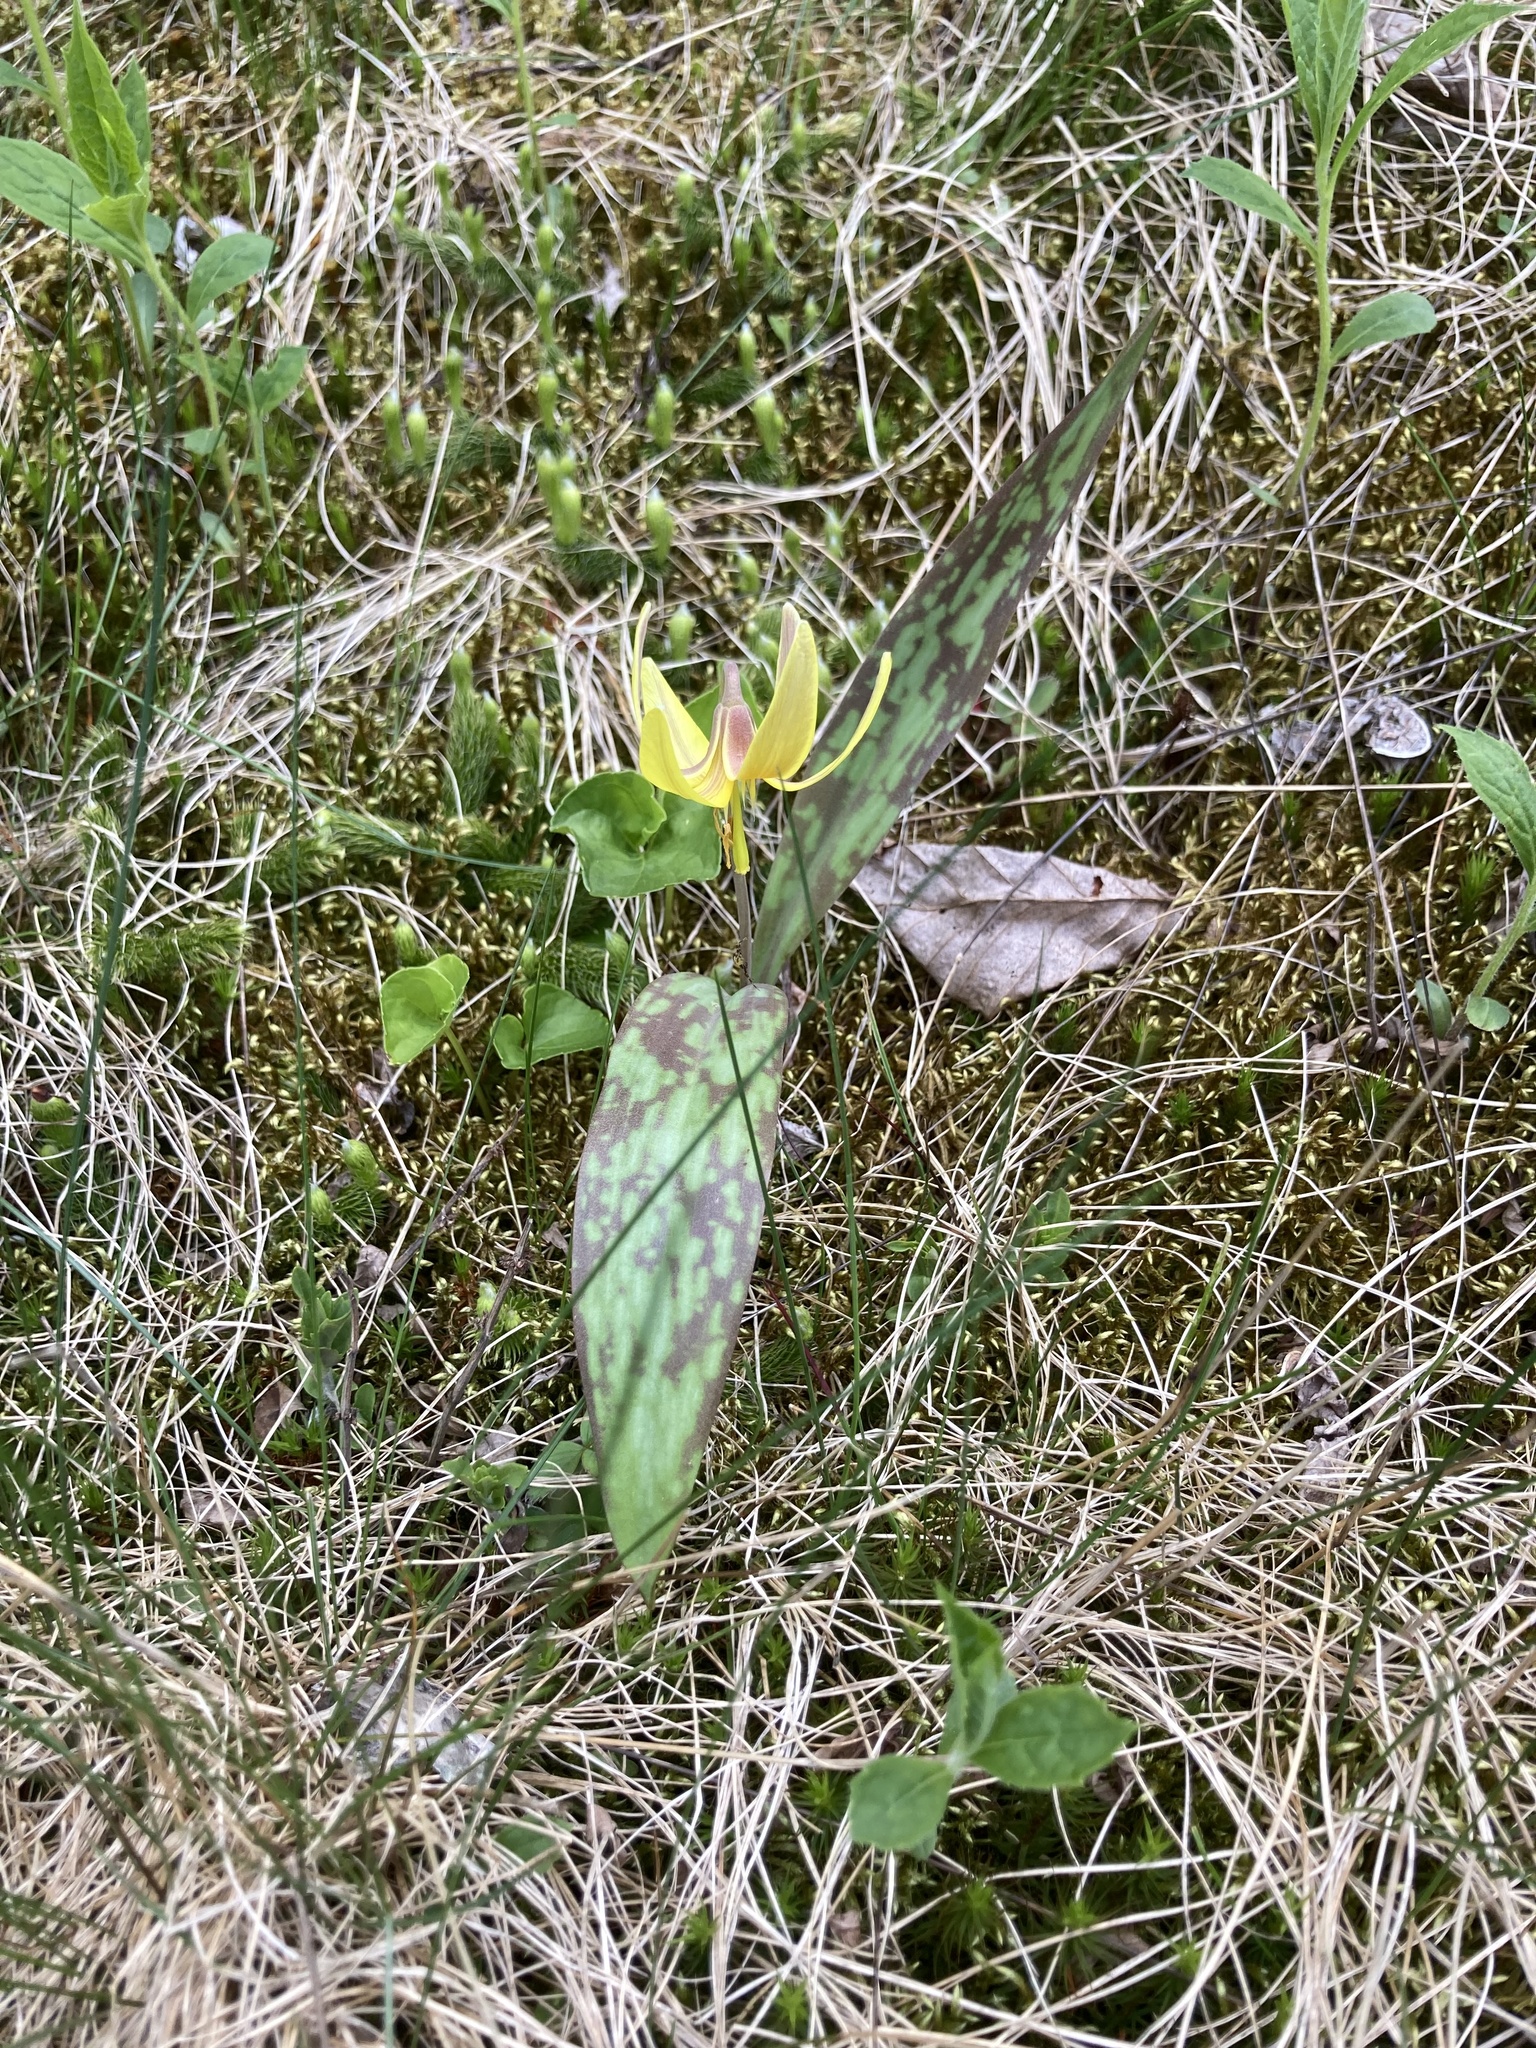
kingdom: Plantae
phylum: Tracheophyta
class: Liliopsida
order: Liliales
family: Liliaceae
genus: Erythronium
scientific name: Erythronium americanum
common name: Yellow adder's-tongue
